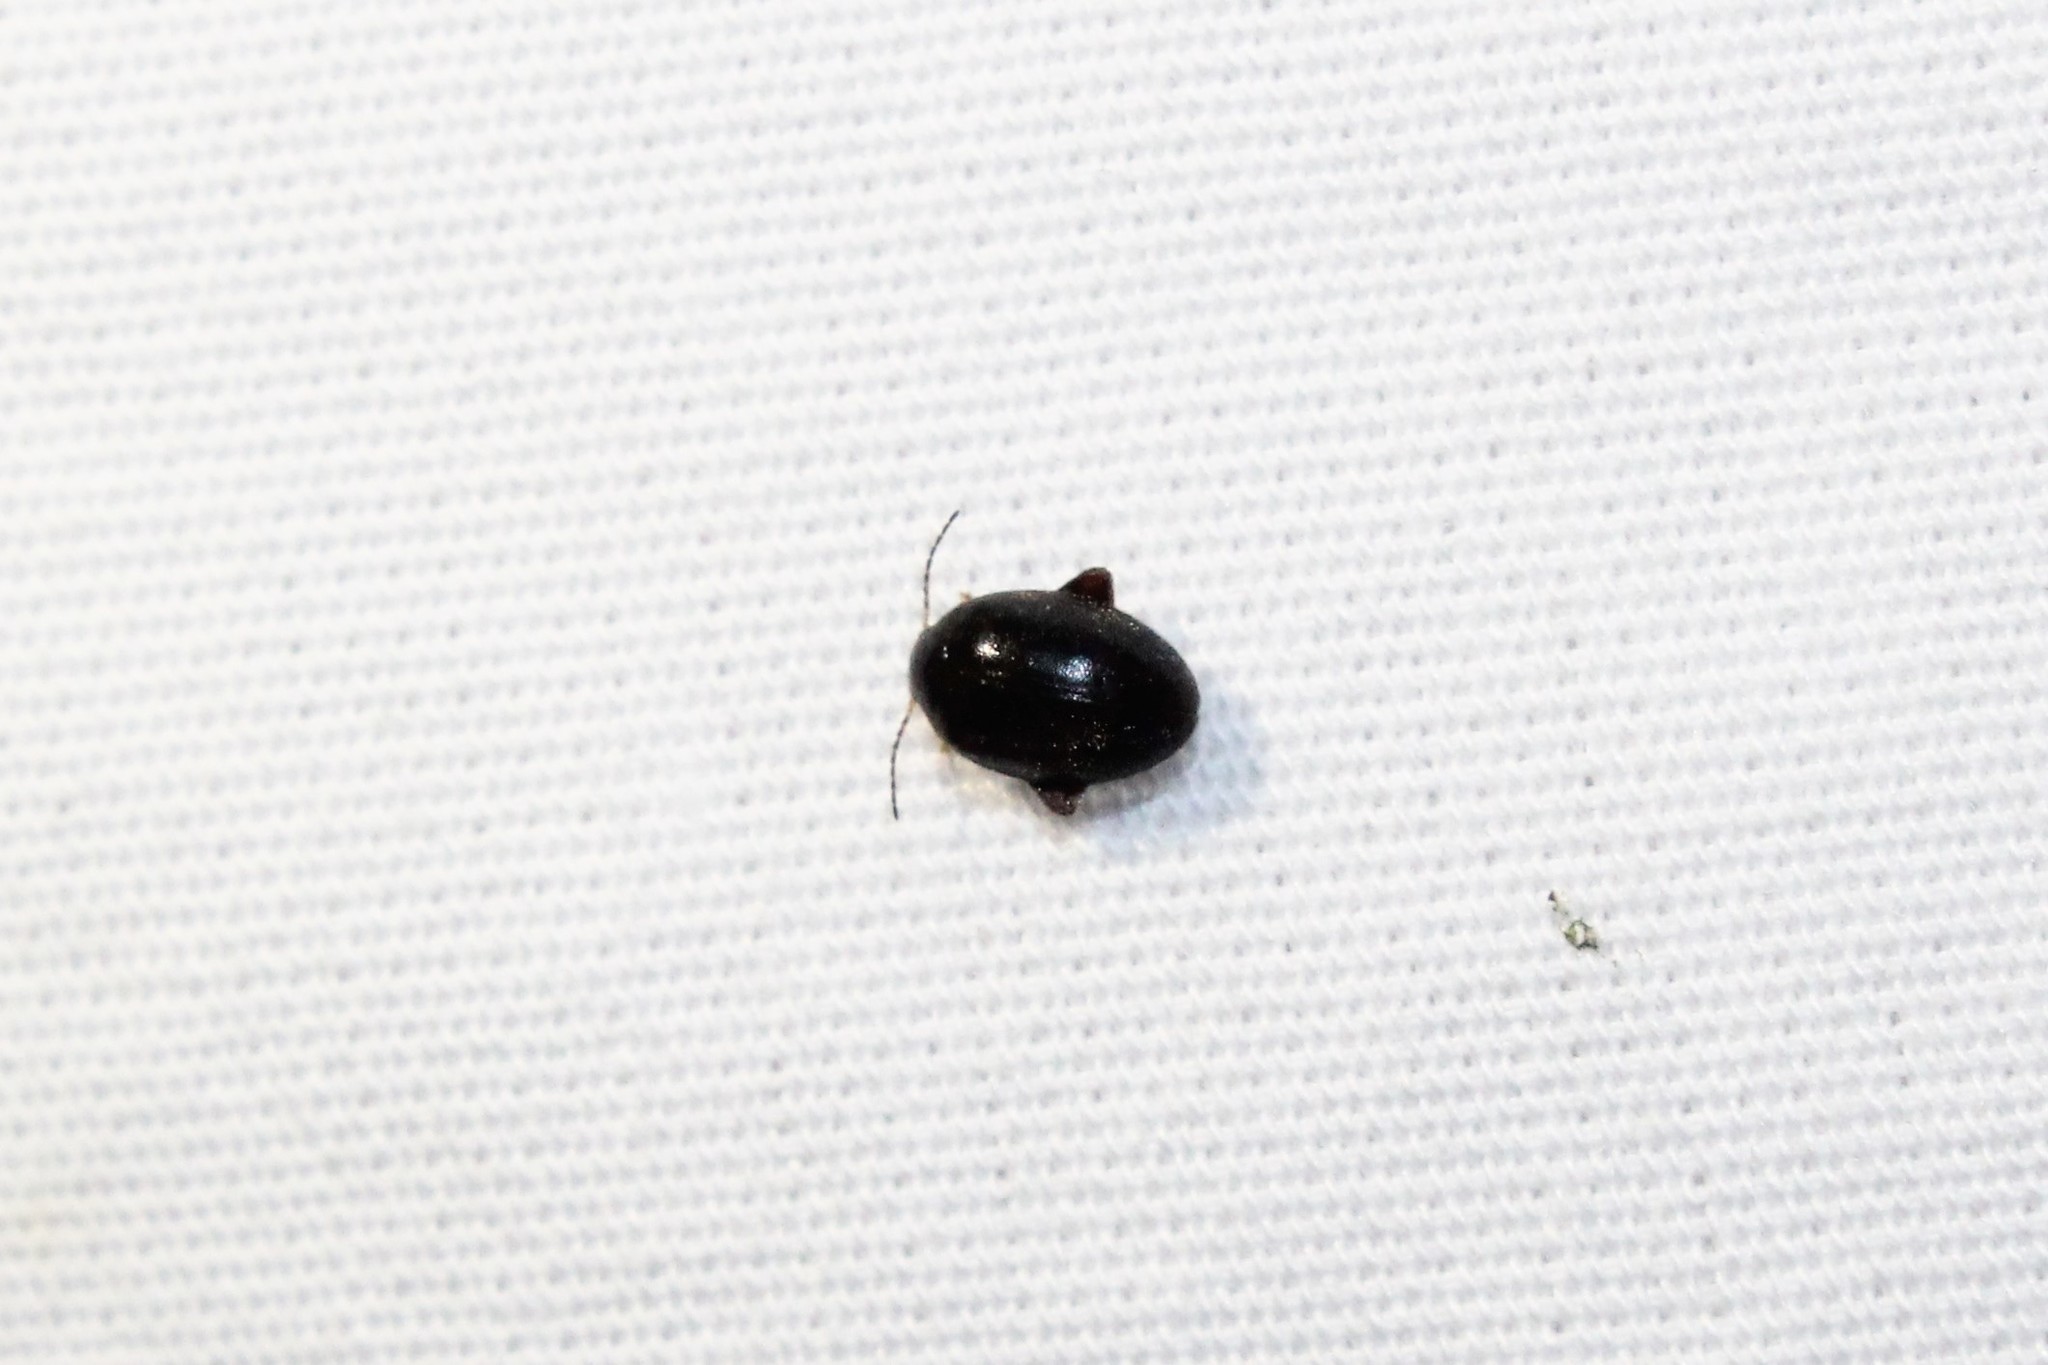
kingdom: Animalia
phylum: Arthropoda
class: Insecta
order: Coleoptera
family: Scirtidae
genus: Scirtes
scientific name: Scirtes tibialis
